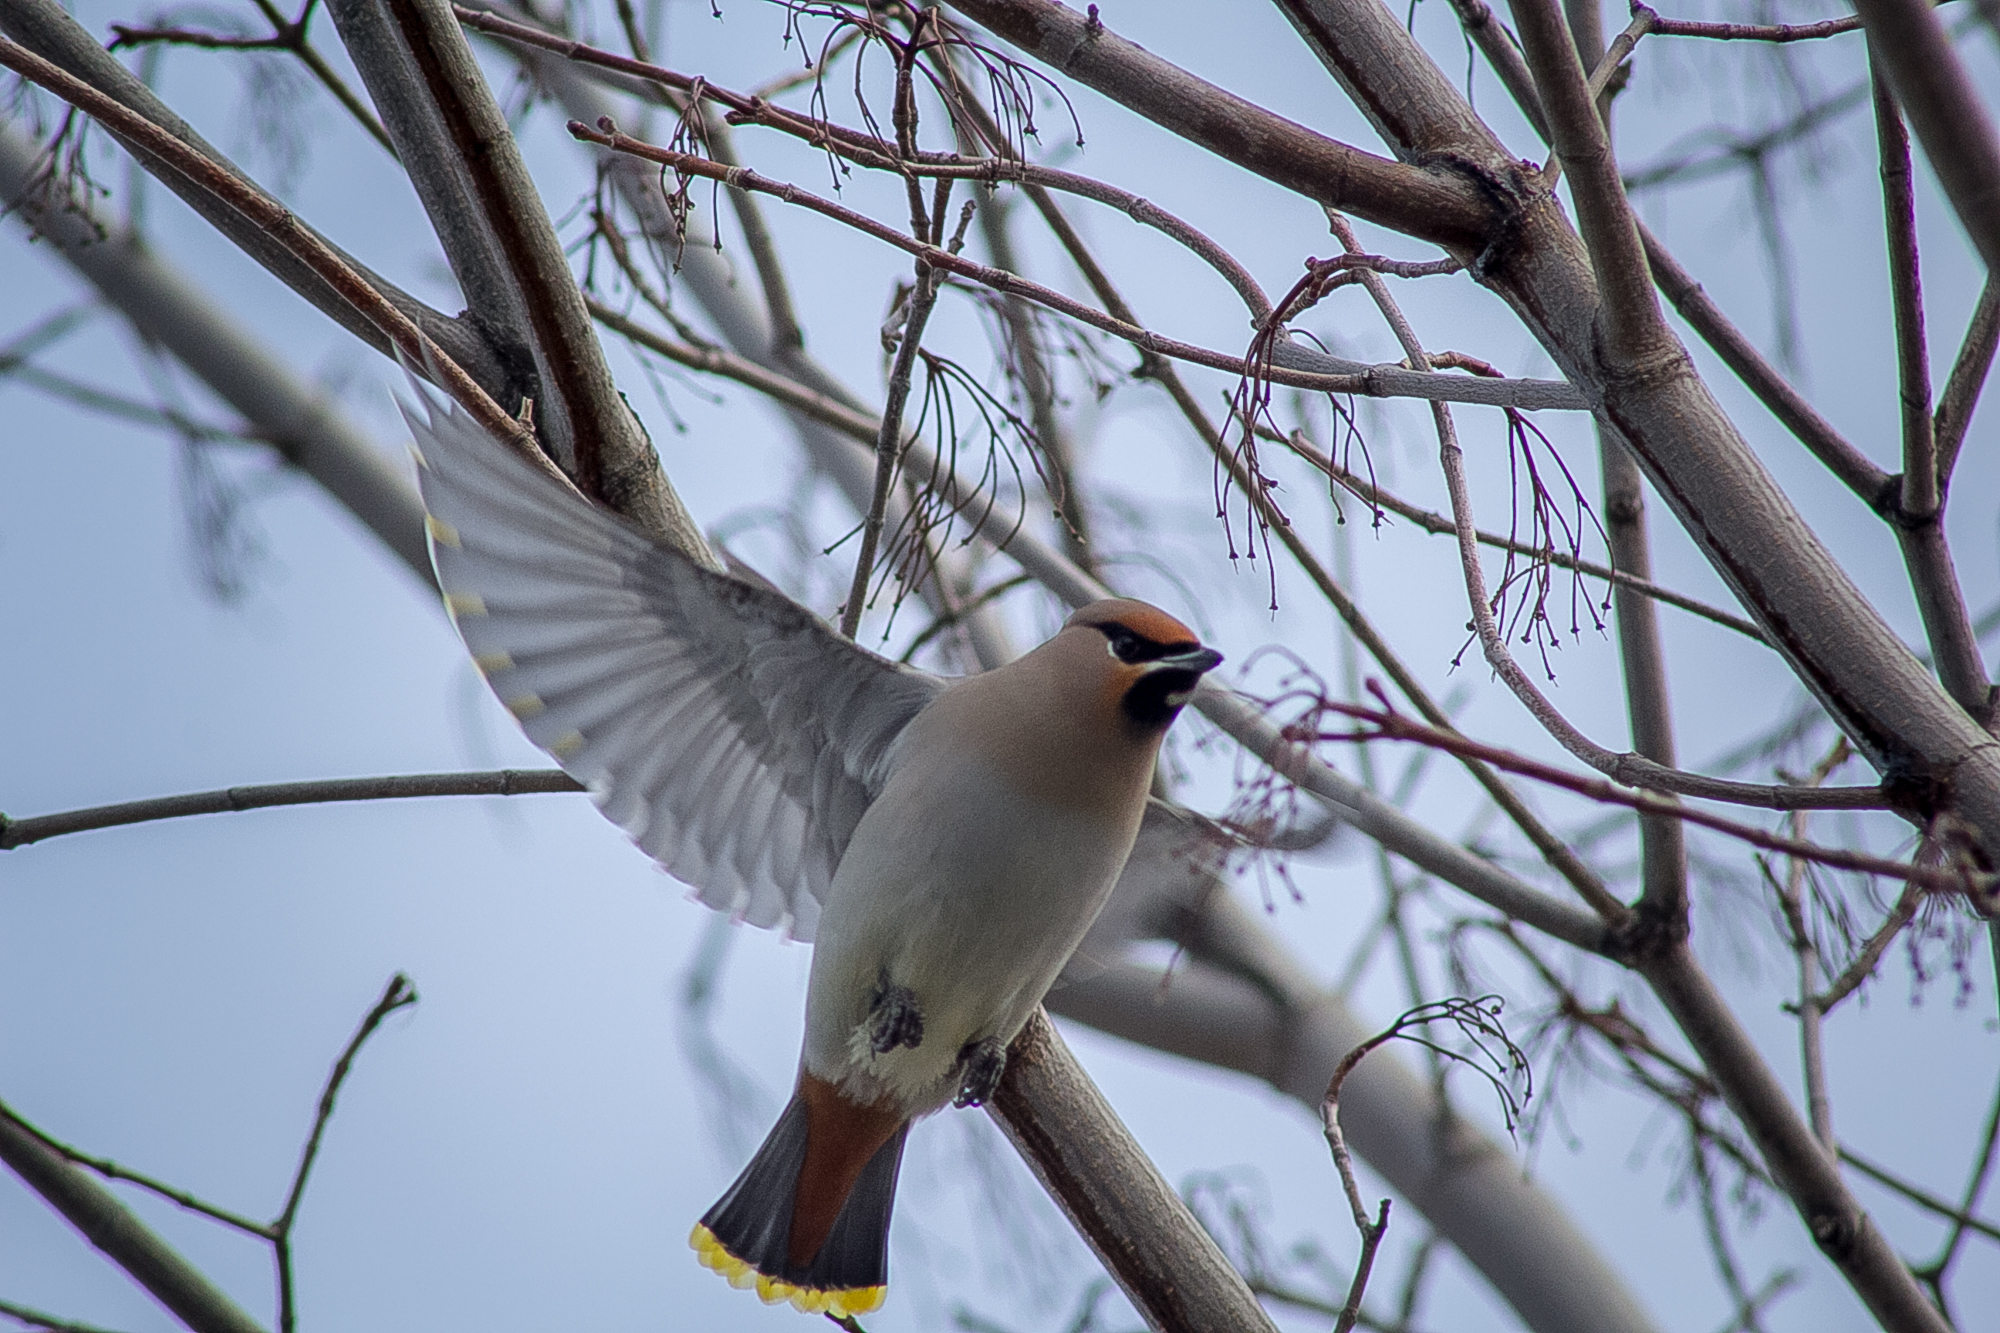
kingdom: Animalia
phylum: Chordata
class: Aves
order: Passeriformes
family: Bombycillidae
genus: Bombycilla
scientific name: Bombycilla garrulus
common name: Bohemian waxwing
